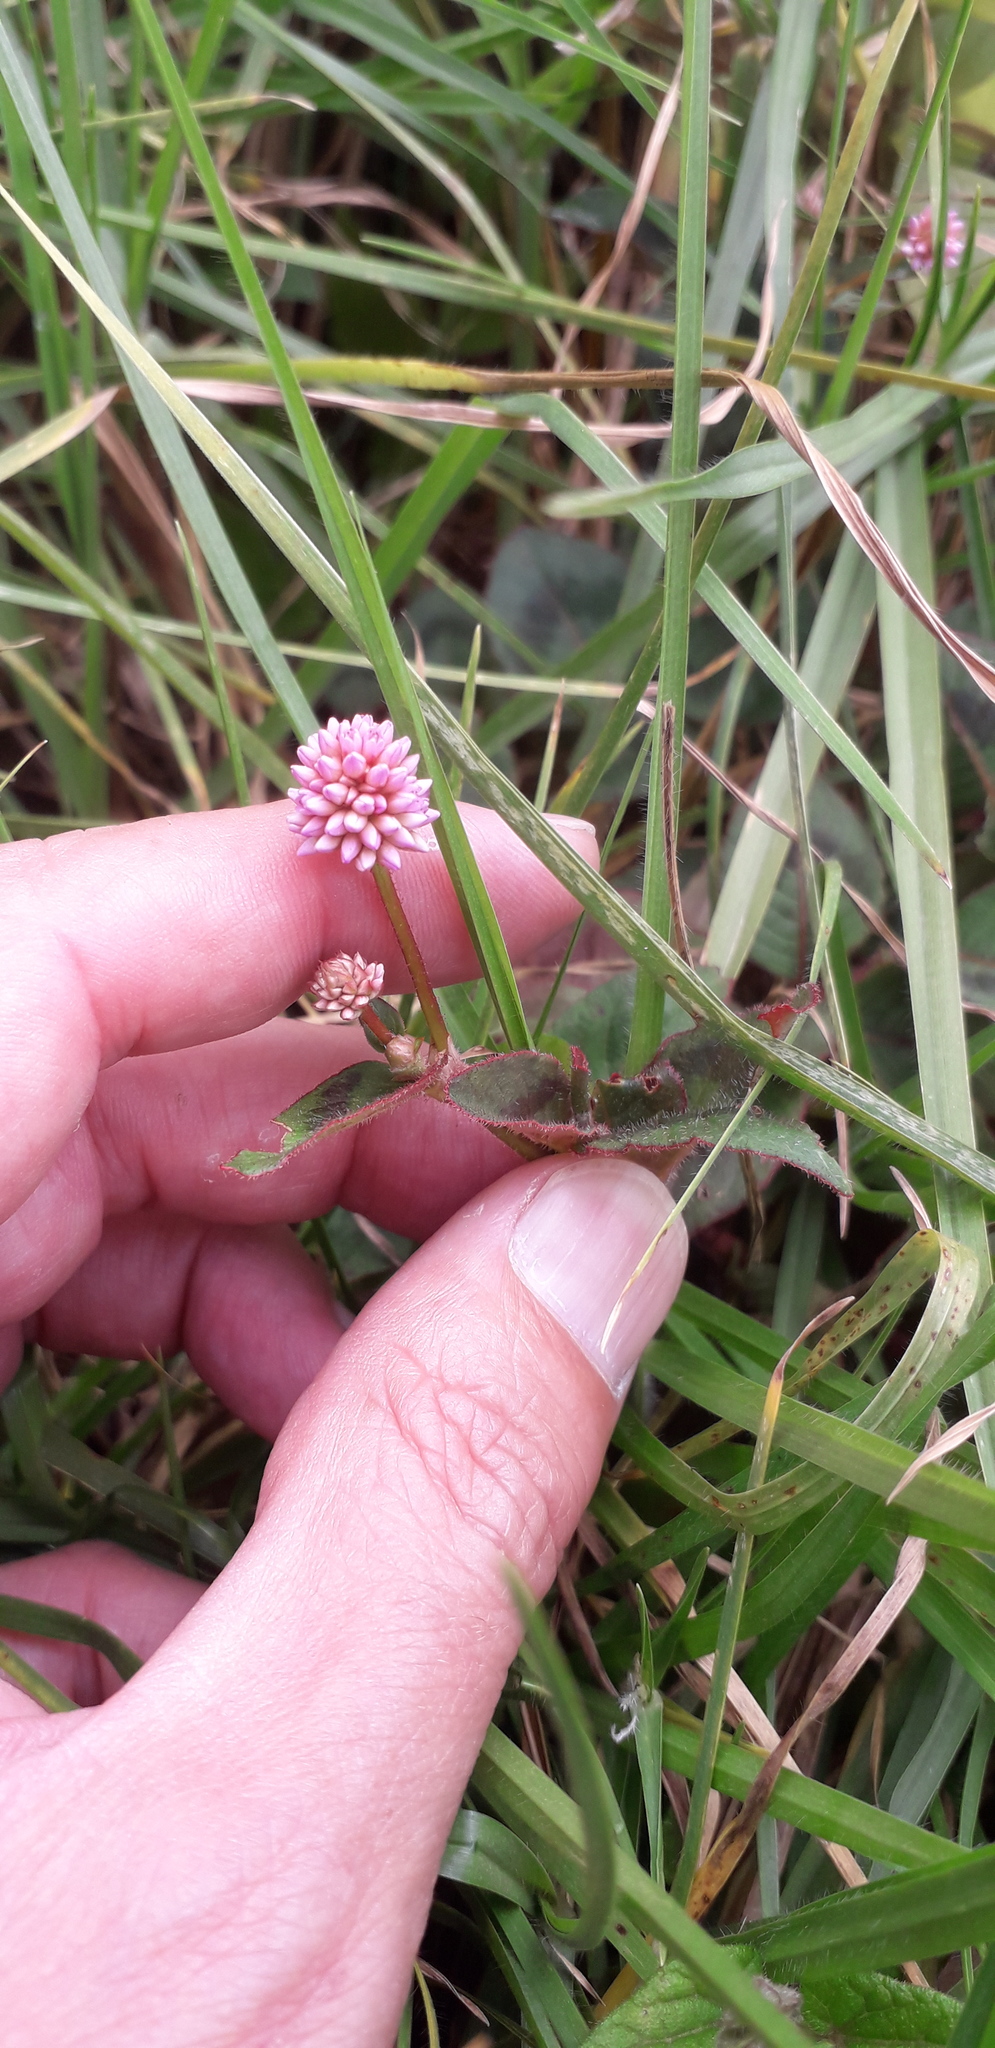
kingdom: Plantae
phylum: Tracheophyta
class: Magnoliopsida
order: Caryophyllales
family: Polygonaceae
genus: Persicaria
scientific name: Persicaria capitata
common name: Pinkhead smartweed
